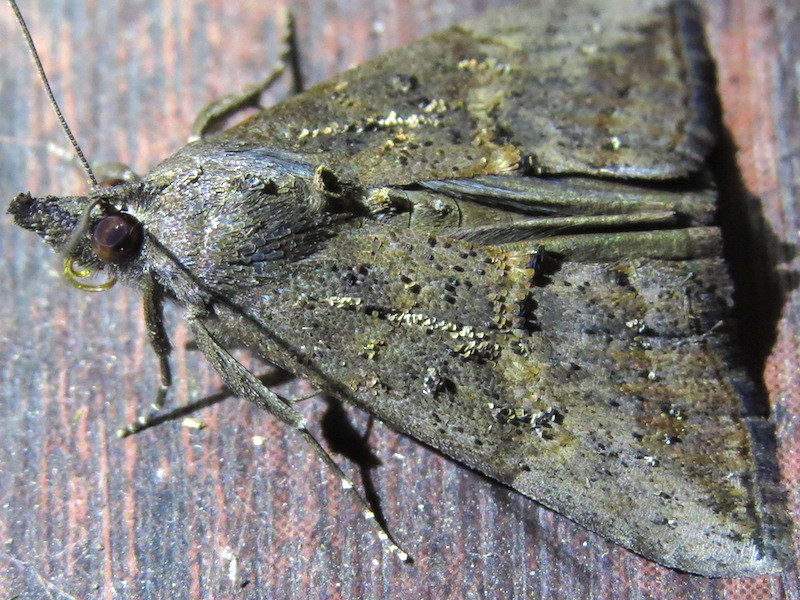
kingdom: Animalia
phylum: Arthropoda
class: Insecta
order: Lepidoptera
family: Erebidae
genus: Hypena
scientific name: Hypena scabra
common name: Green cloverworm
